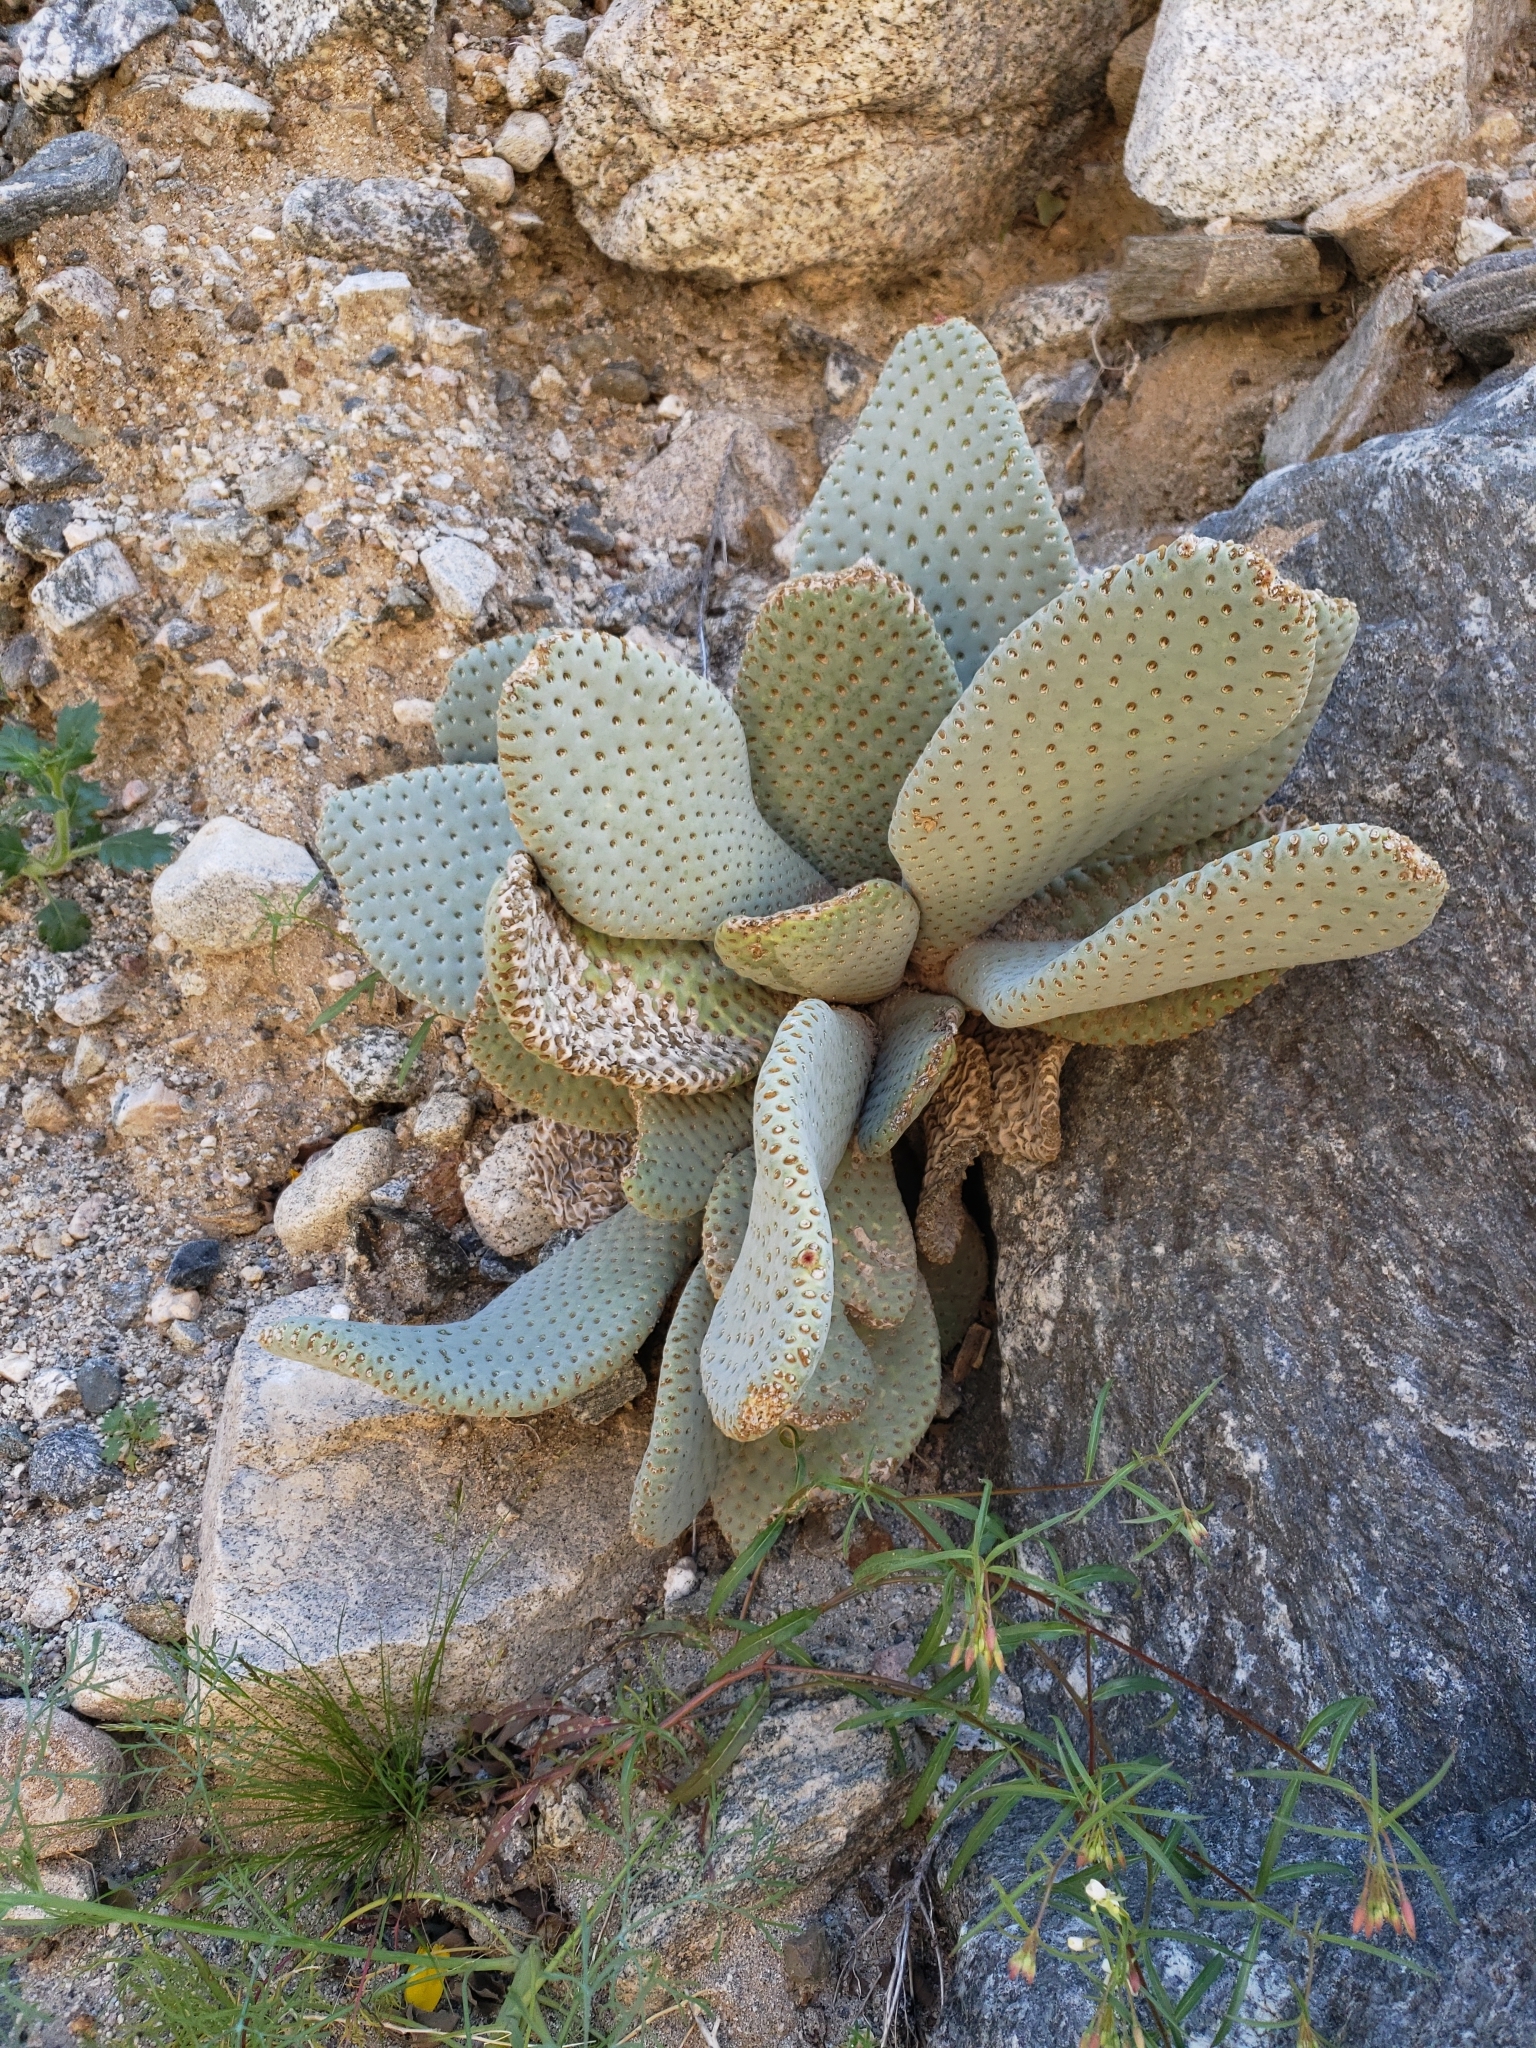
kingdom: Plantae
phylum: Tracheophyta
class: Magnoliopsida
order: Caryophyllales
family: Cactaceae
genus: Opuntia
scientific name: Opuntia basilaris
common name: Beavertail prickly-pear
